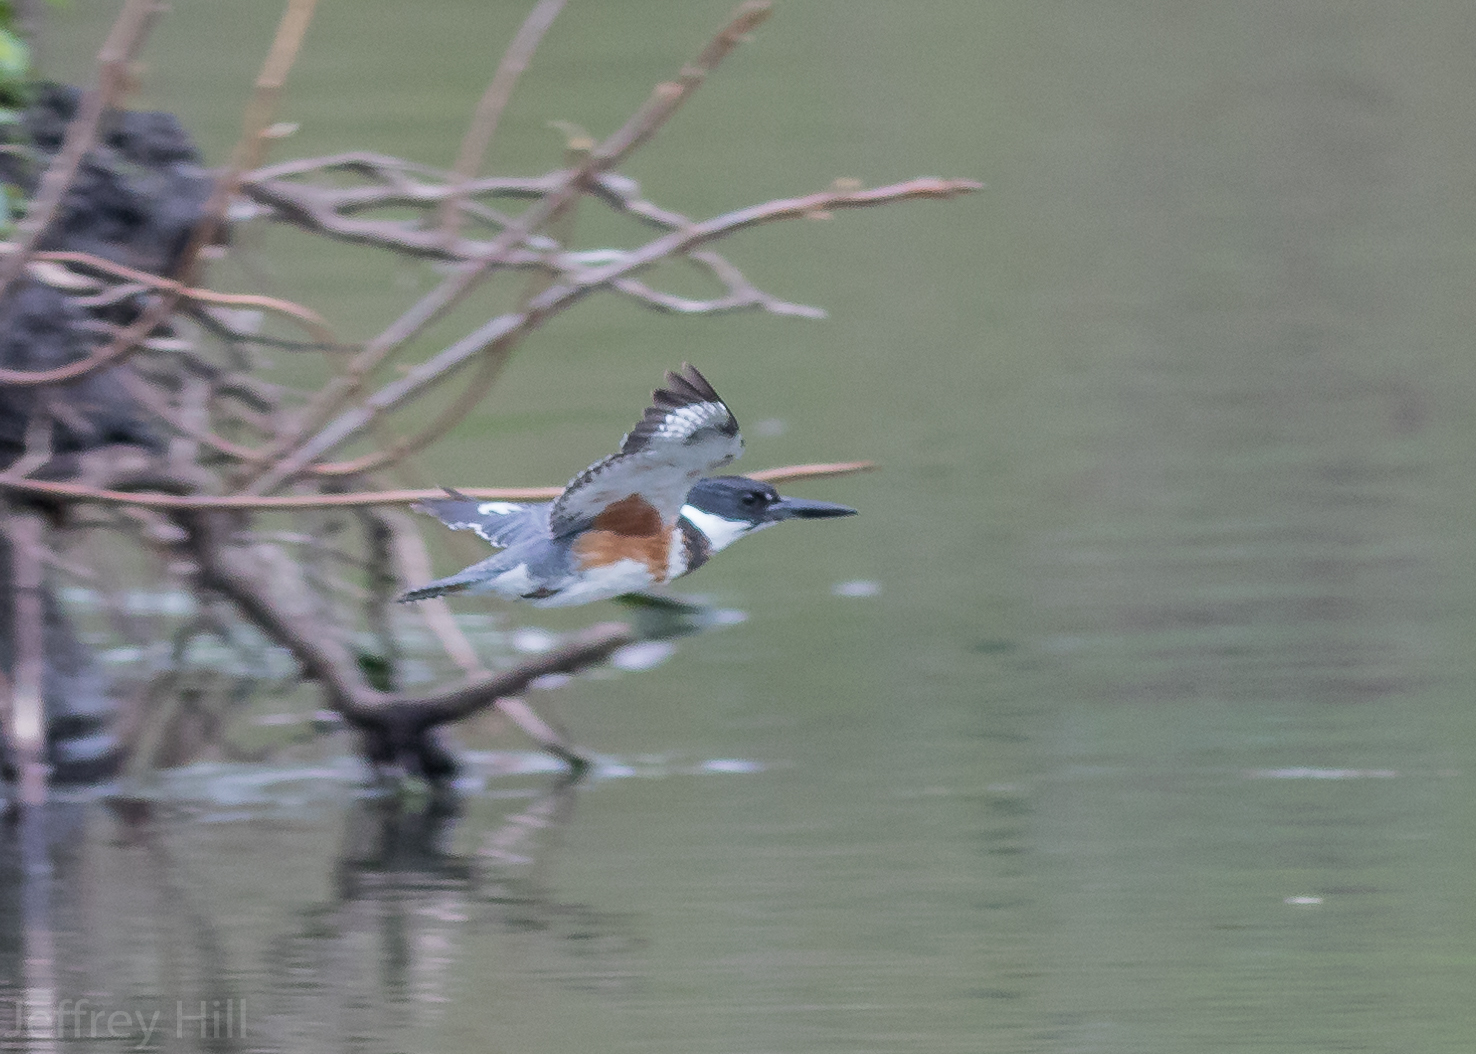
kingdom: Animalia
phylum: Chordata
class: Aves
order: Coraciiformes
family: Alcedinidae
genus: Megaceryle
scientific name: Megaceryle alcyon
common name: Belted kingfisher
